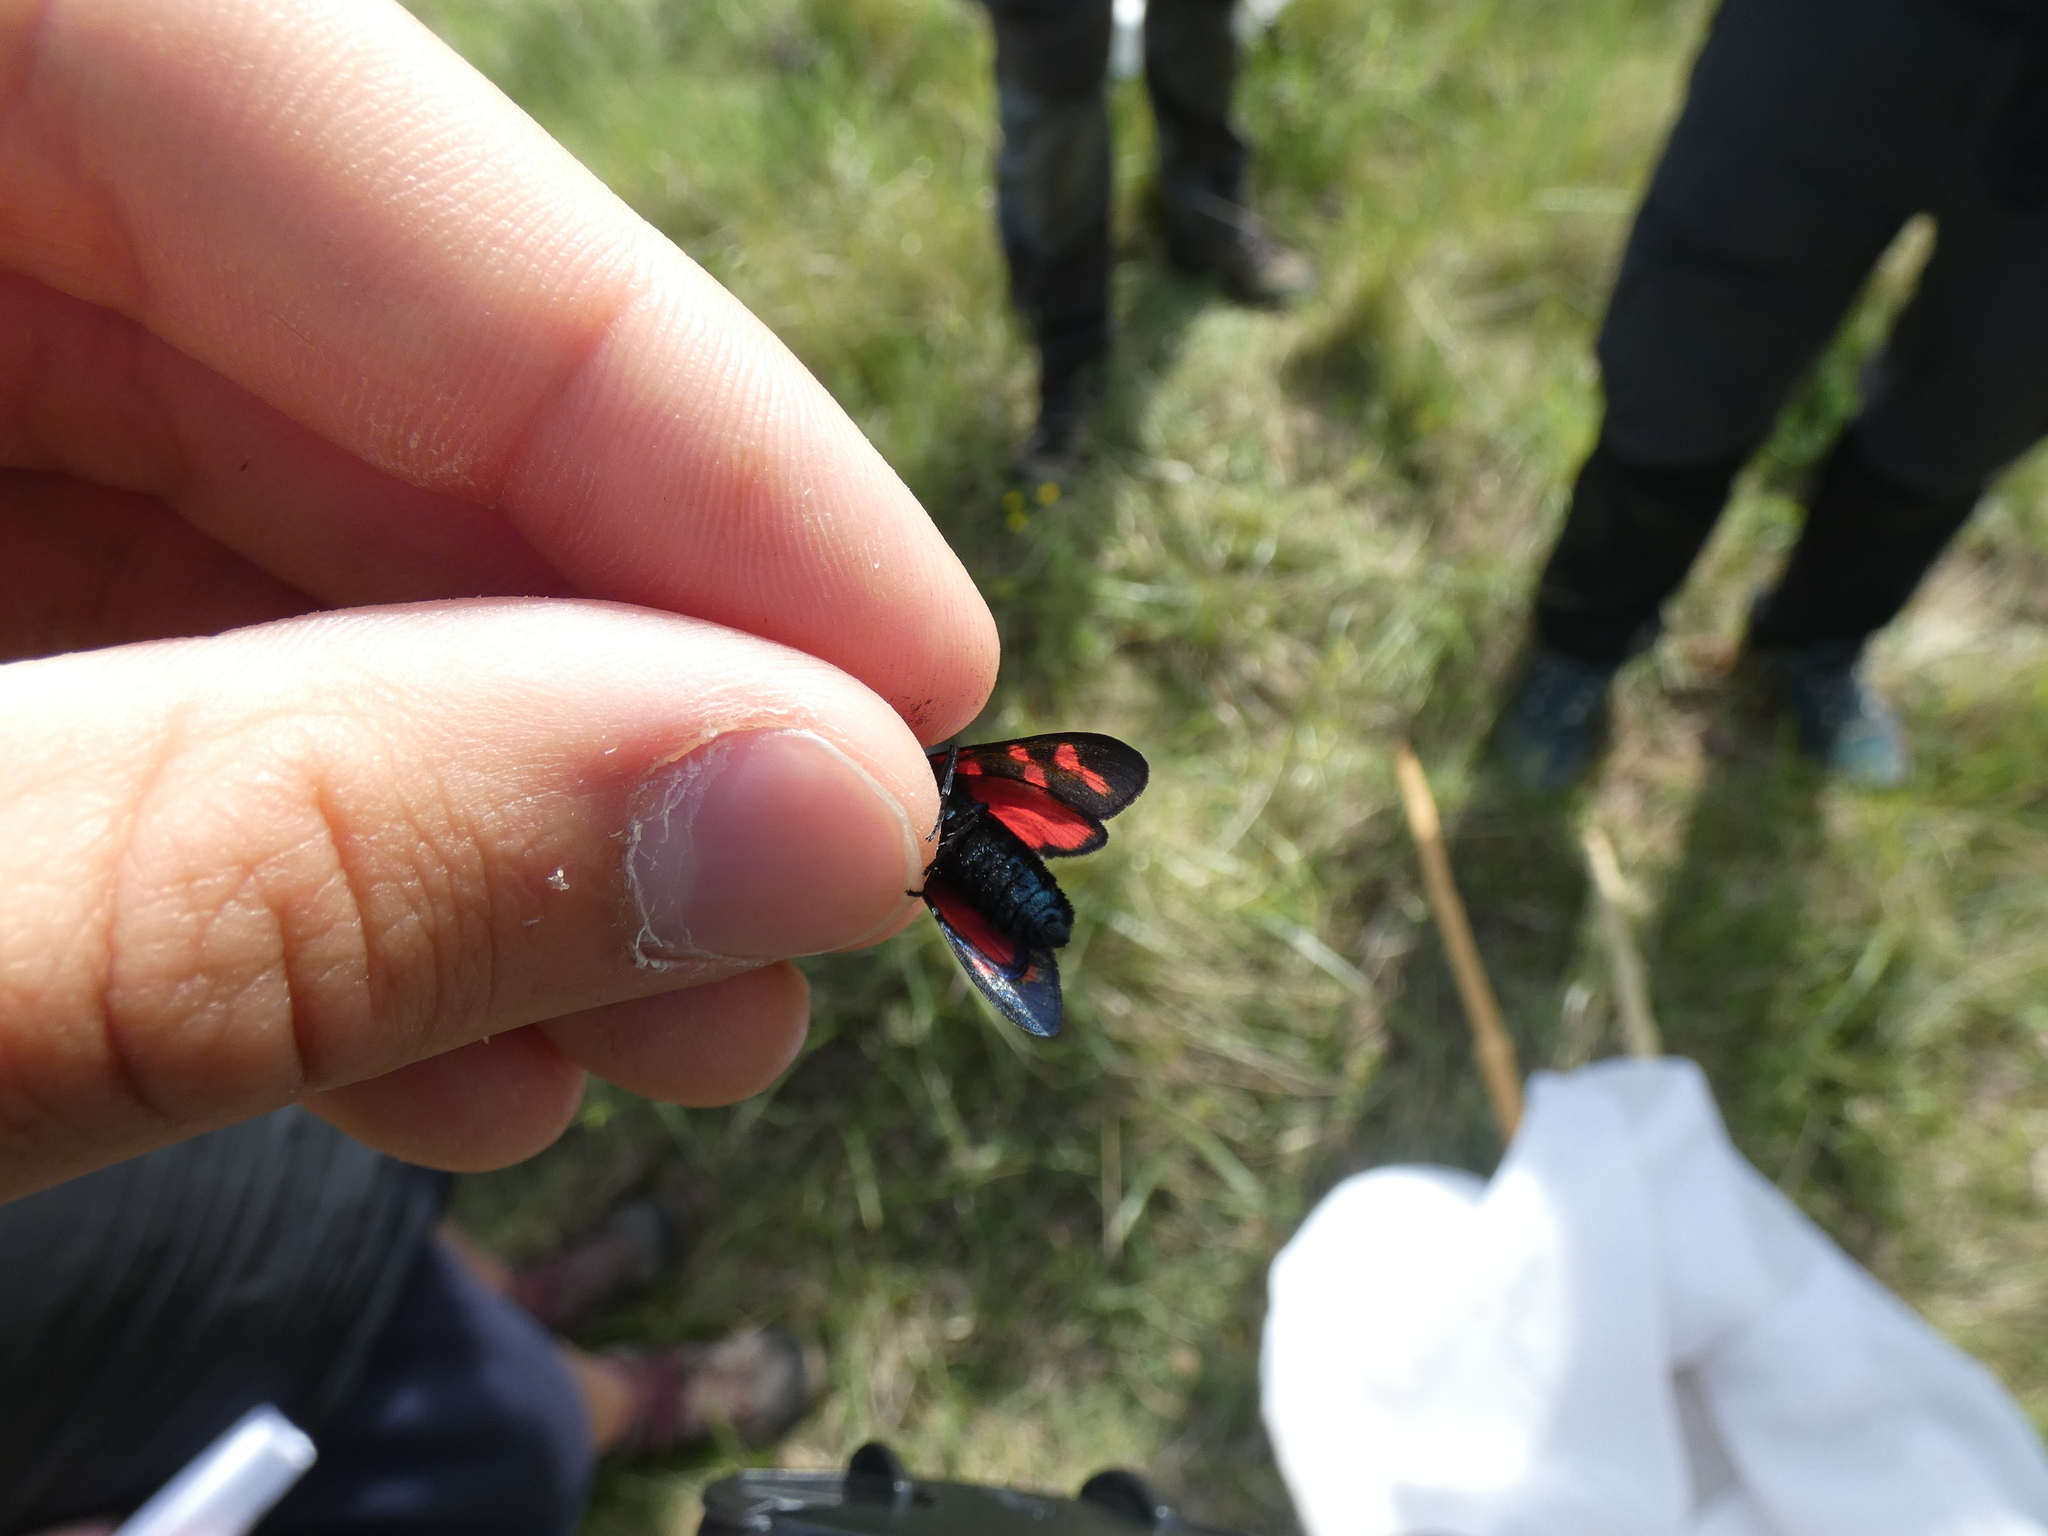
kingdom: Animalia
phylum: Arthropoda
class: Insecta
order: Lepidoptera
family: Zygaenidae
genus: Zygaena
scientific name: Zygaena filipendulae
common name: Six-spot burnet
